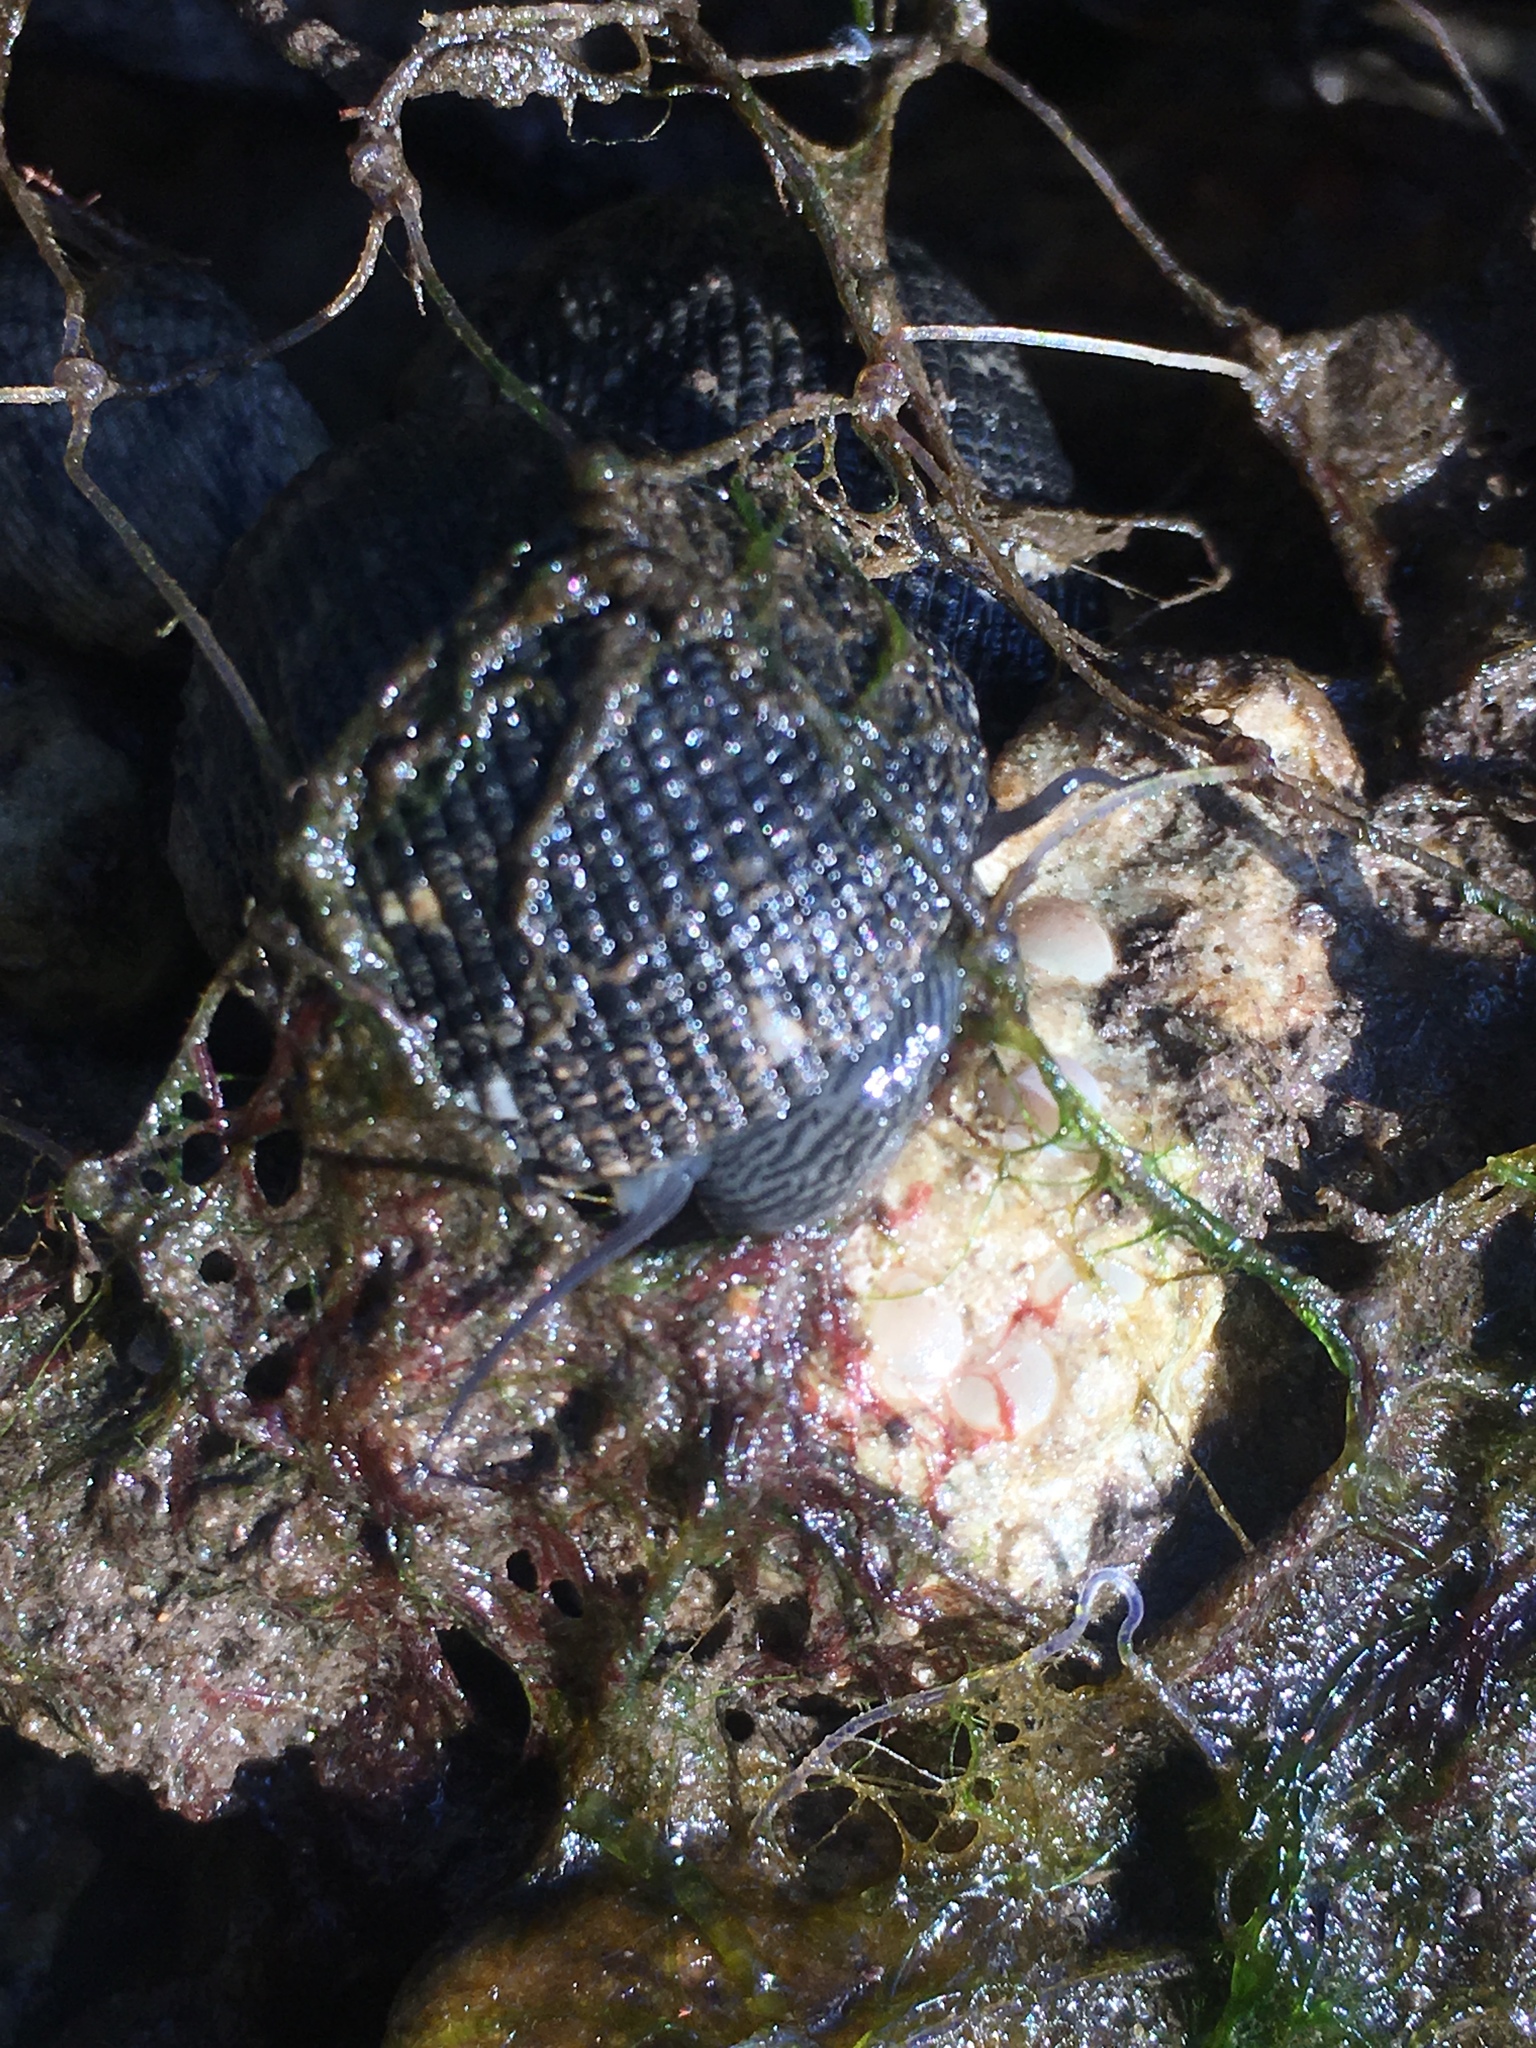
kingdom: Animalia
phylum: Mollusca
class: Gastropoda
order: Cycloneritida
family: Neritidae
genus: Nerita
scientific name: Nerita fulgurans
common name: Antillean nerite
